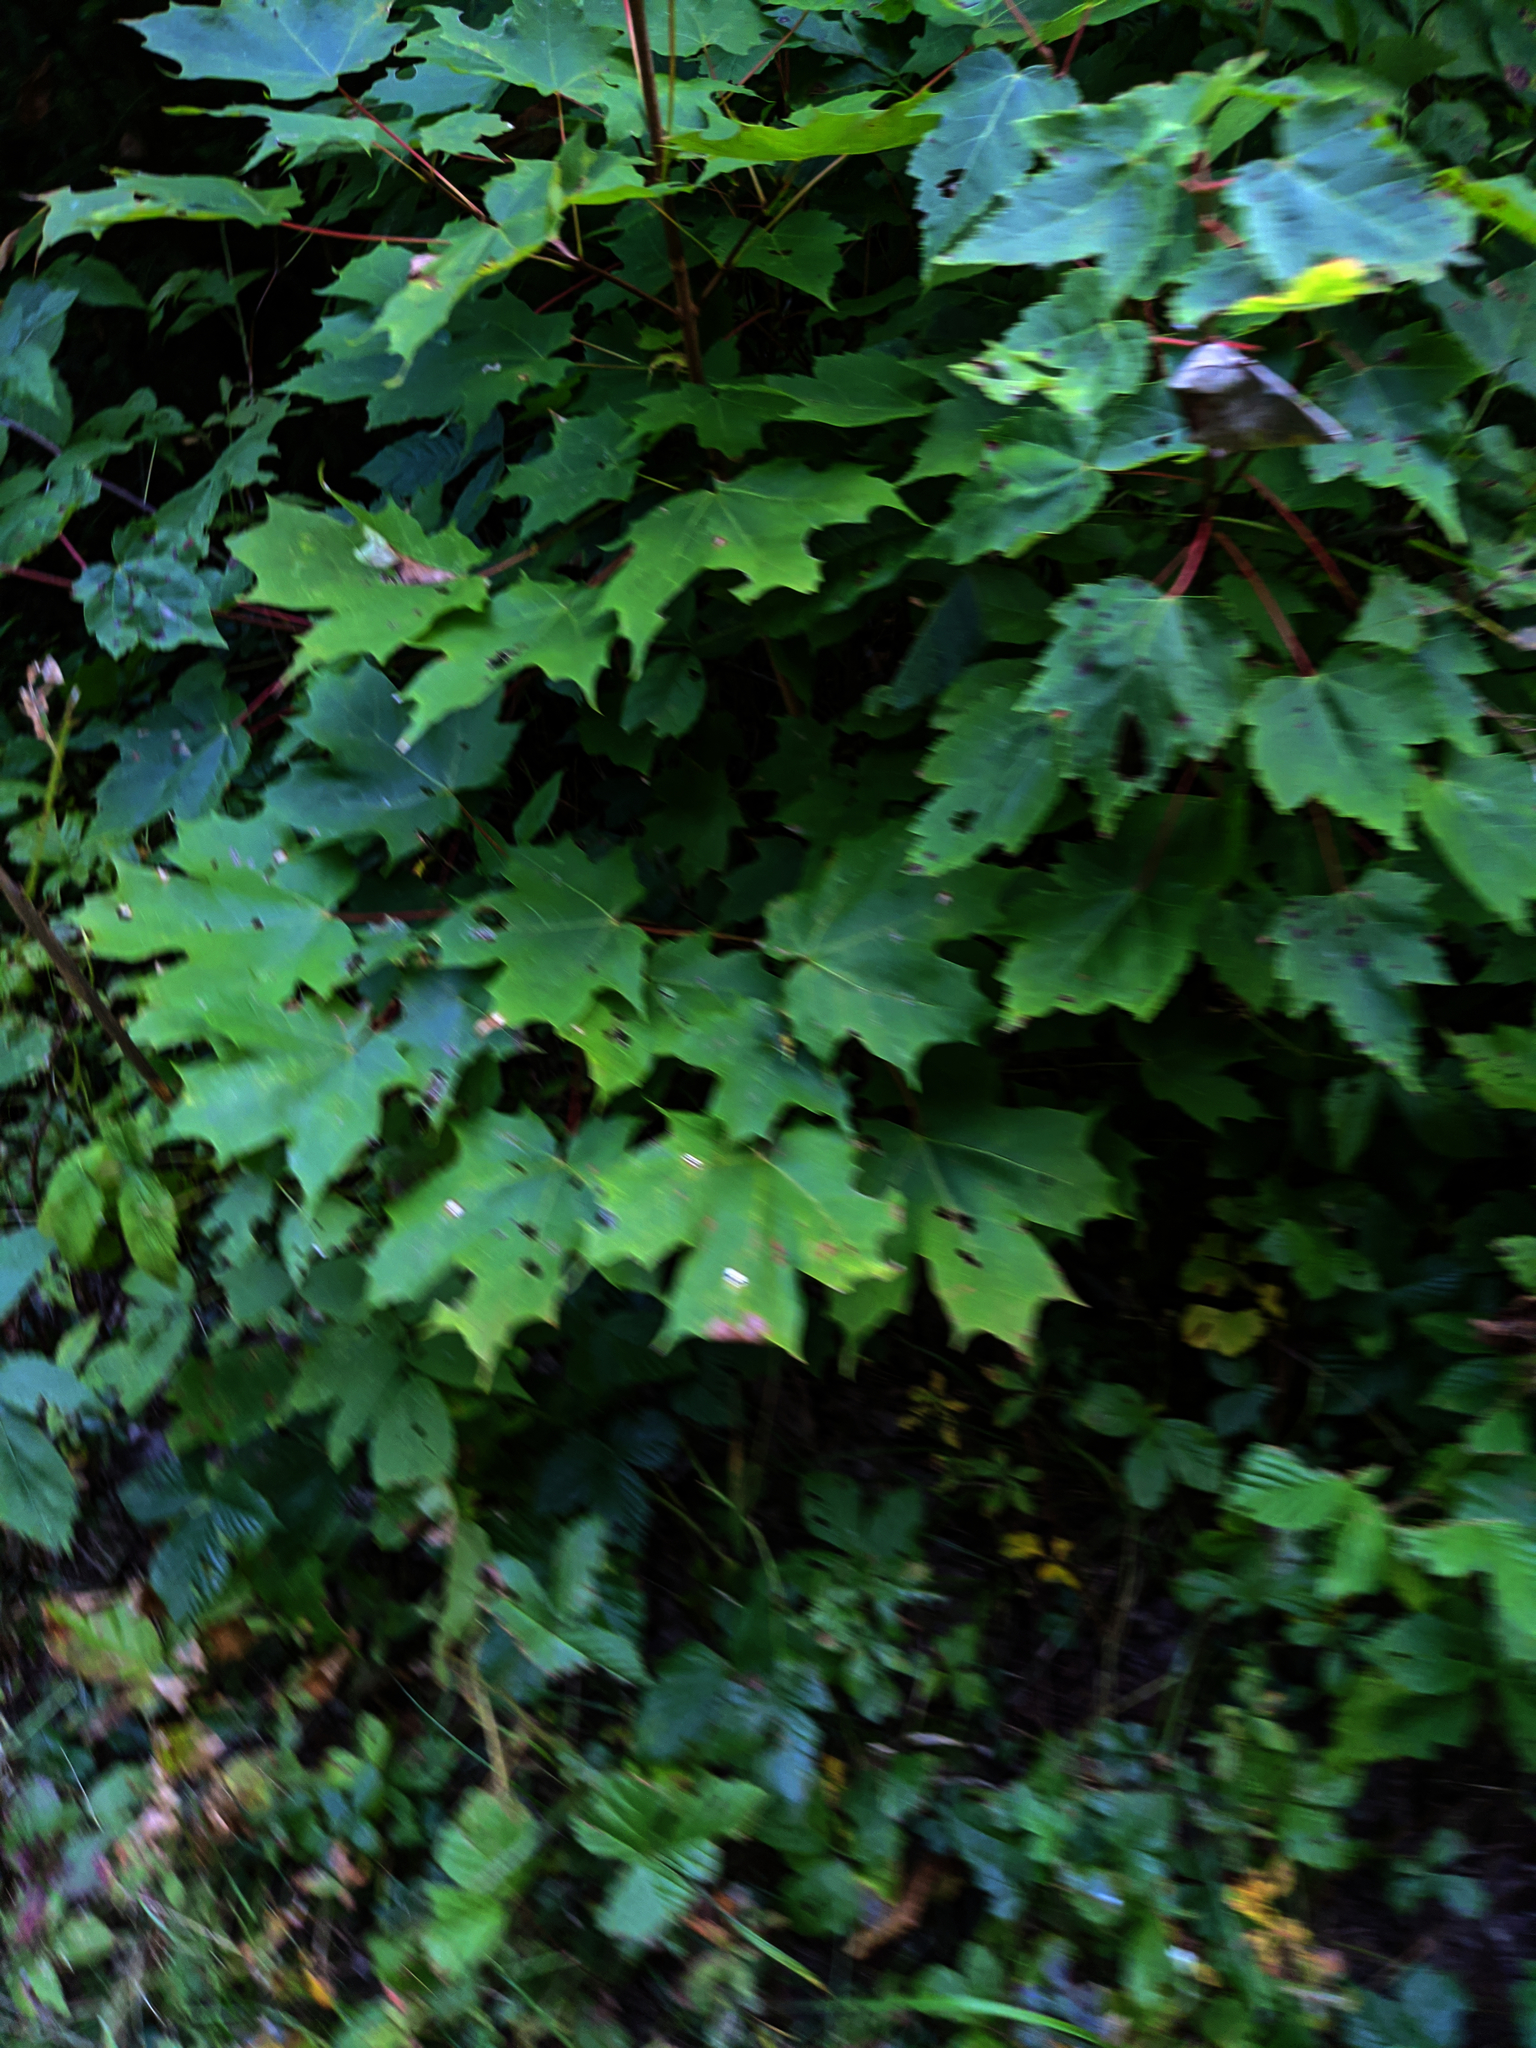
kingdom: Plantae
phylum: Tracheophyta
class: Magnoliopsida
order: Sapindales
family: Sapindaceae
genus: Acer
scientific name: Acer rubrum
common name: Red maple
